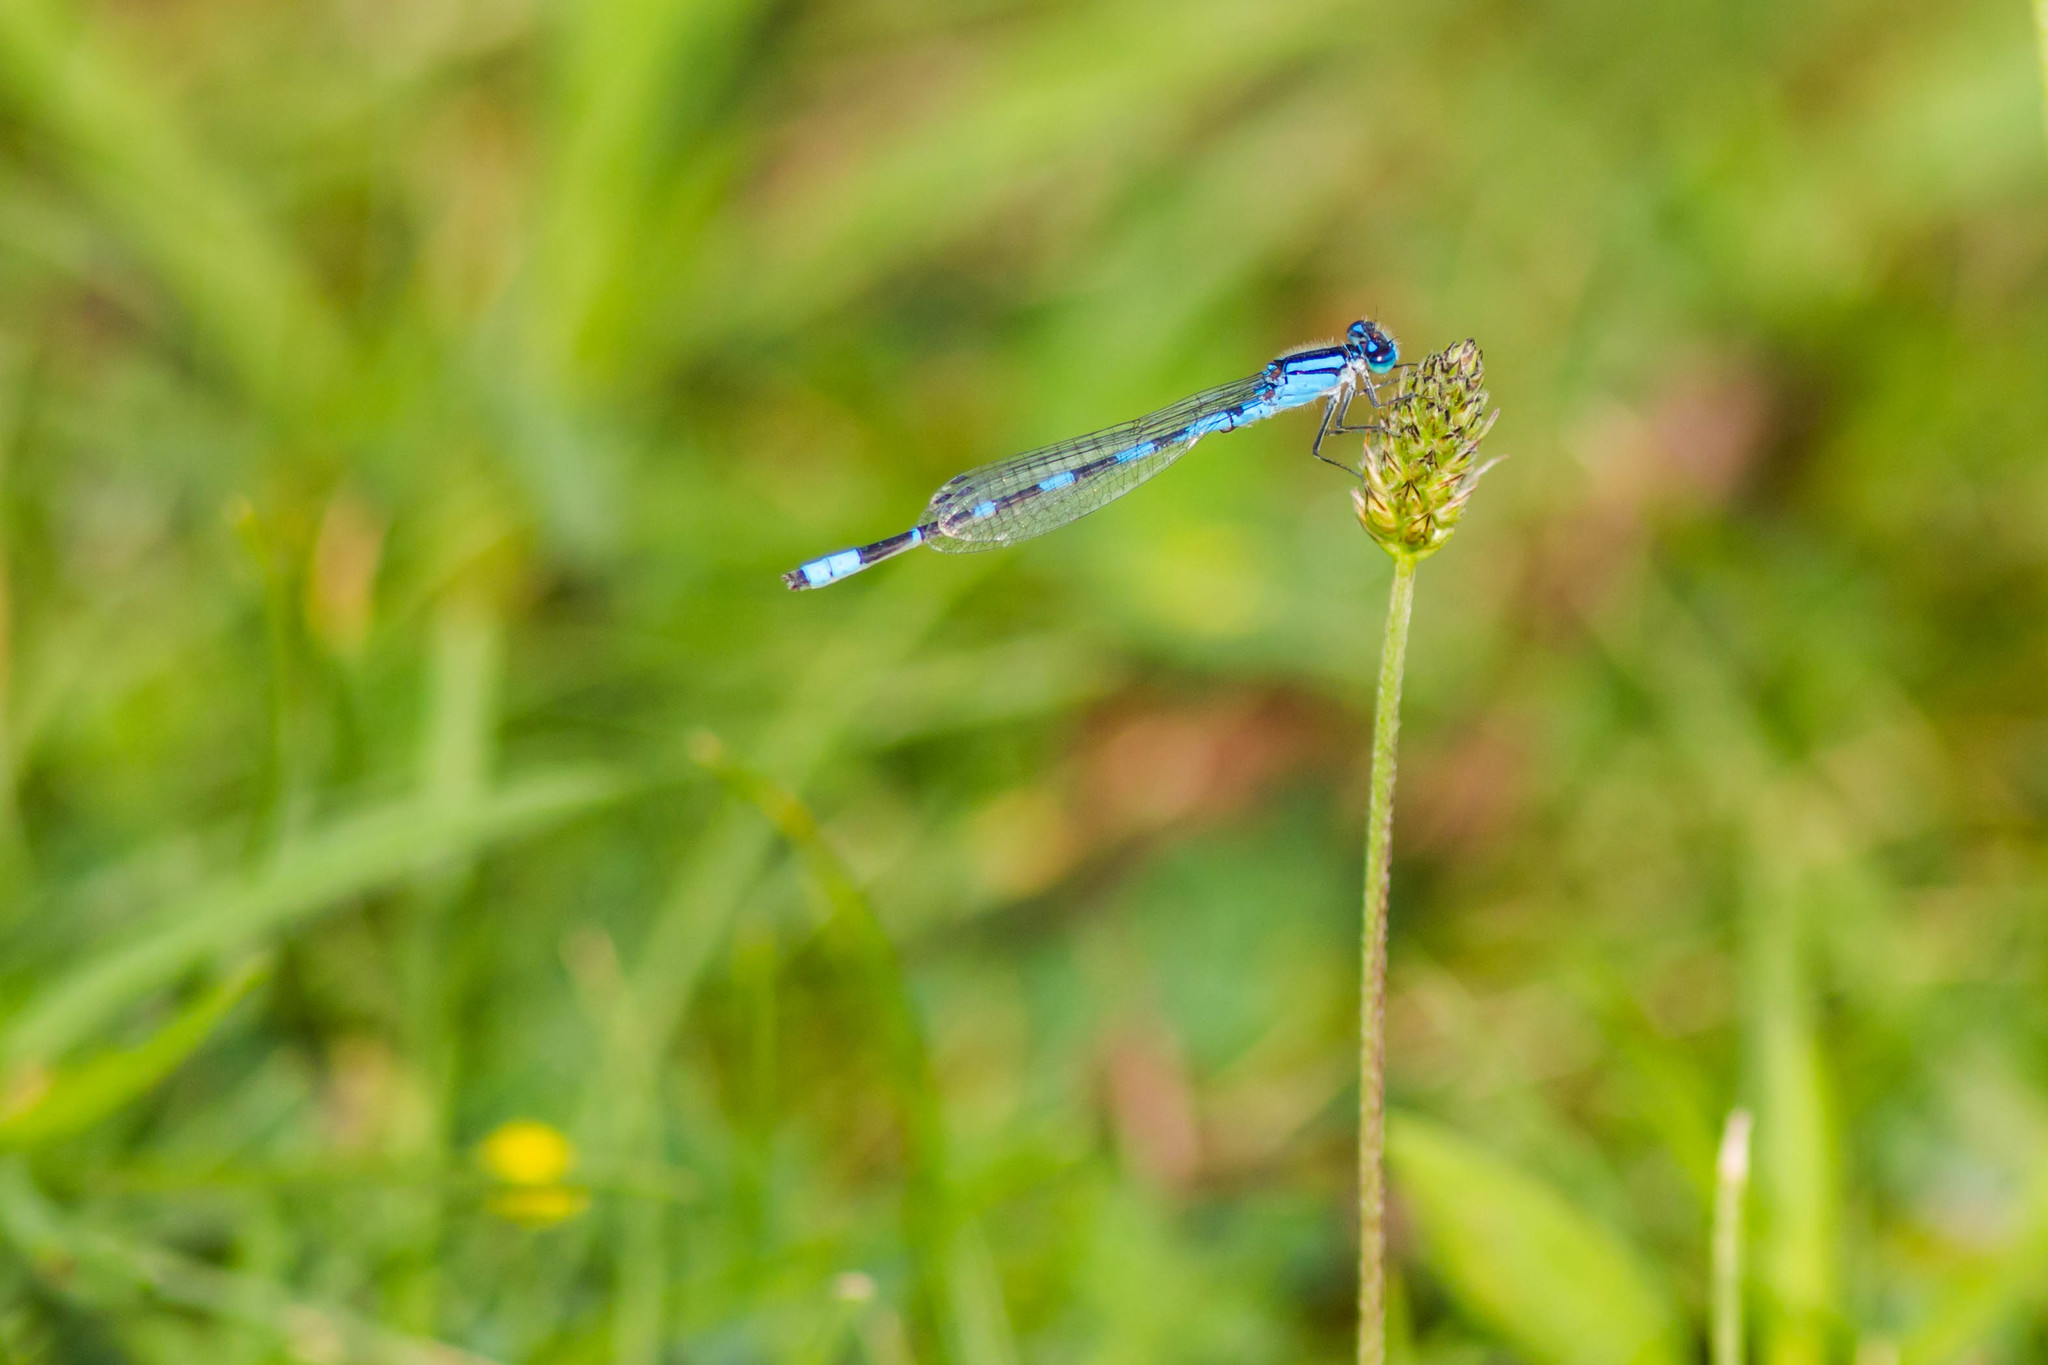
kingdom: Animalia
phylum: Arthropoda
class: Insecta
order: Odonata
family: Coenagrionidae
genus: Enallagma
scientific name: Enallagma carunculatum
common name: Tule bluet
